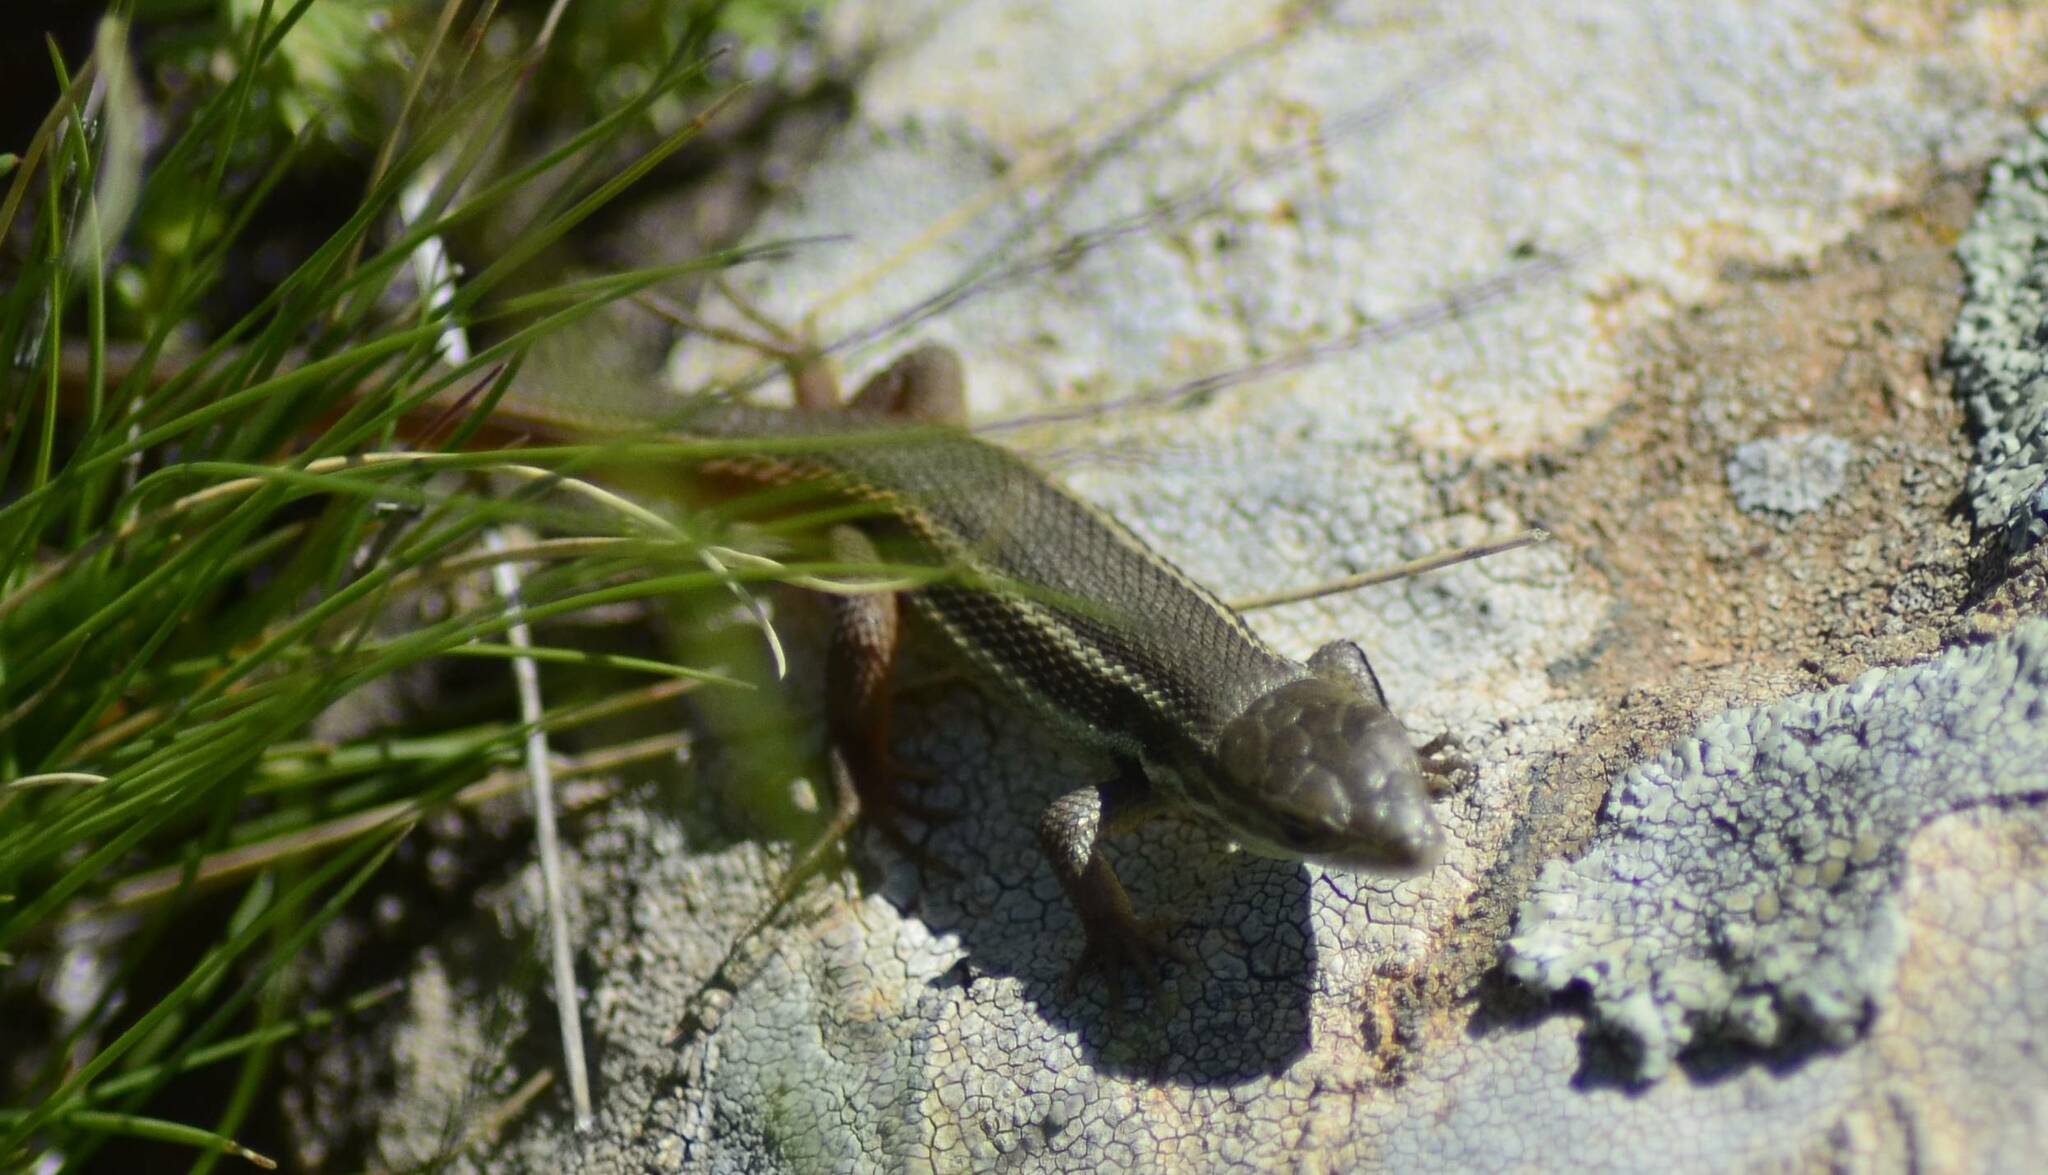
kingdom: Animalia
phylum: Chordata
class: Squamata
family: Lacertidae
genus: Psammodromus
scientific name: Psammodromus algirus
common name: Algerian psammodromus
